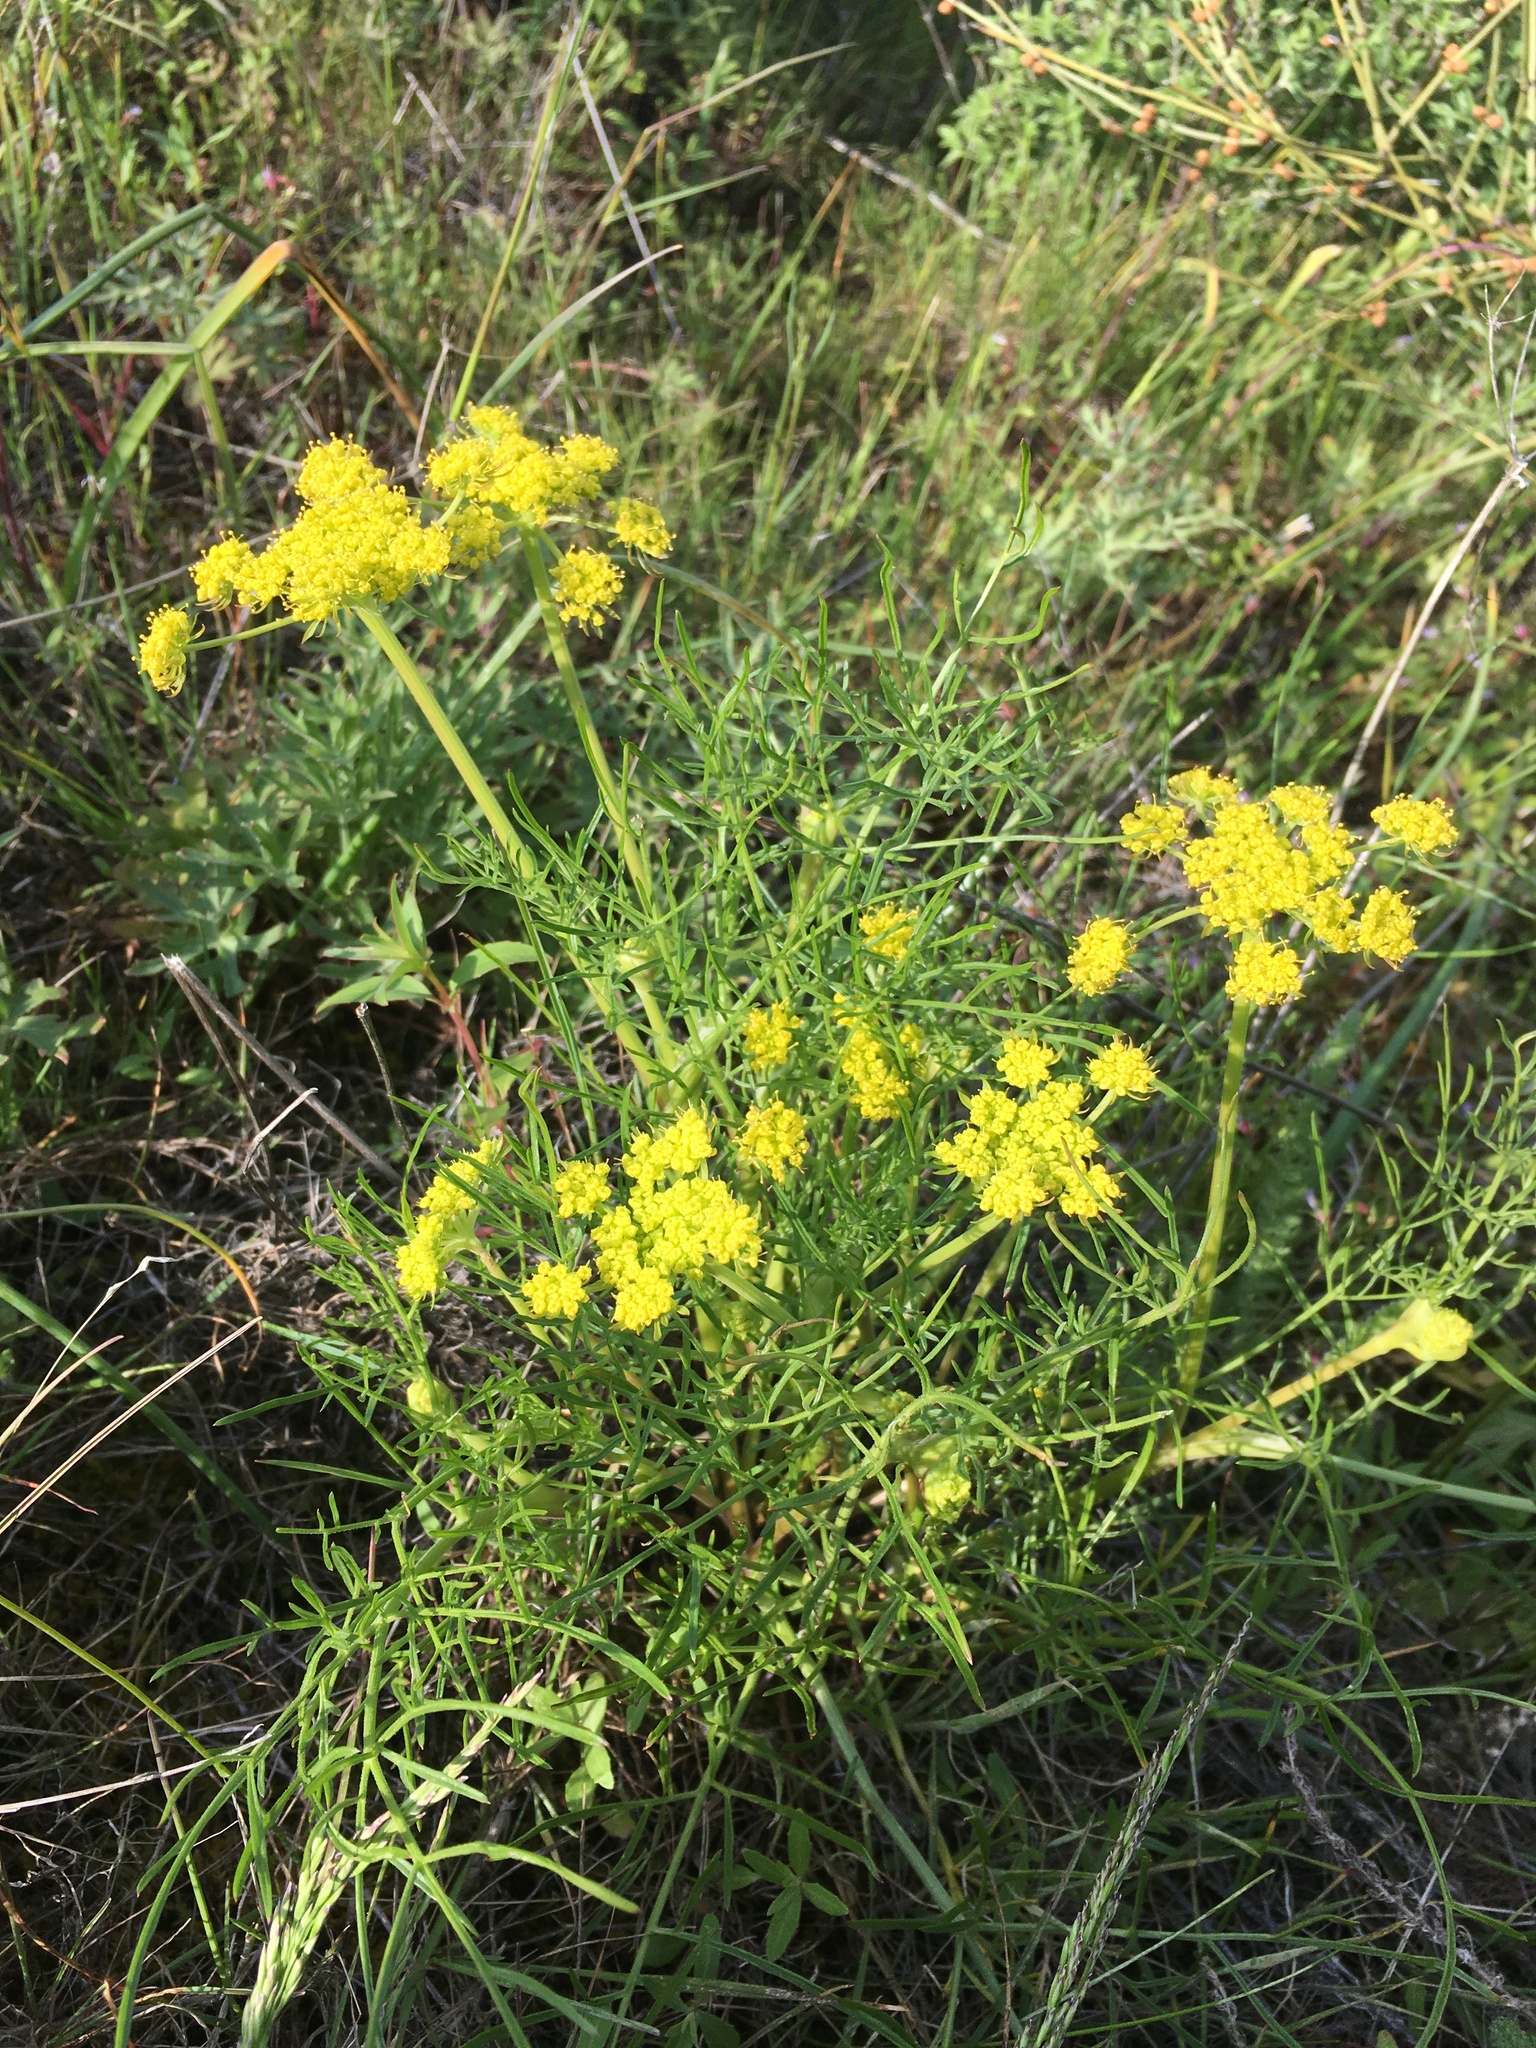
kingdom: Plantae
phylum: Tracheophyta
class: Magnoliopsida
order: Apiales
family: Apiaceae
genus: Lomatium
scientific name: Lomatium utriculatum
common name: Fine-leaf desert-parsley
